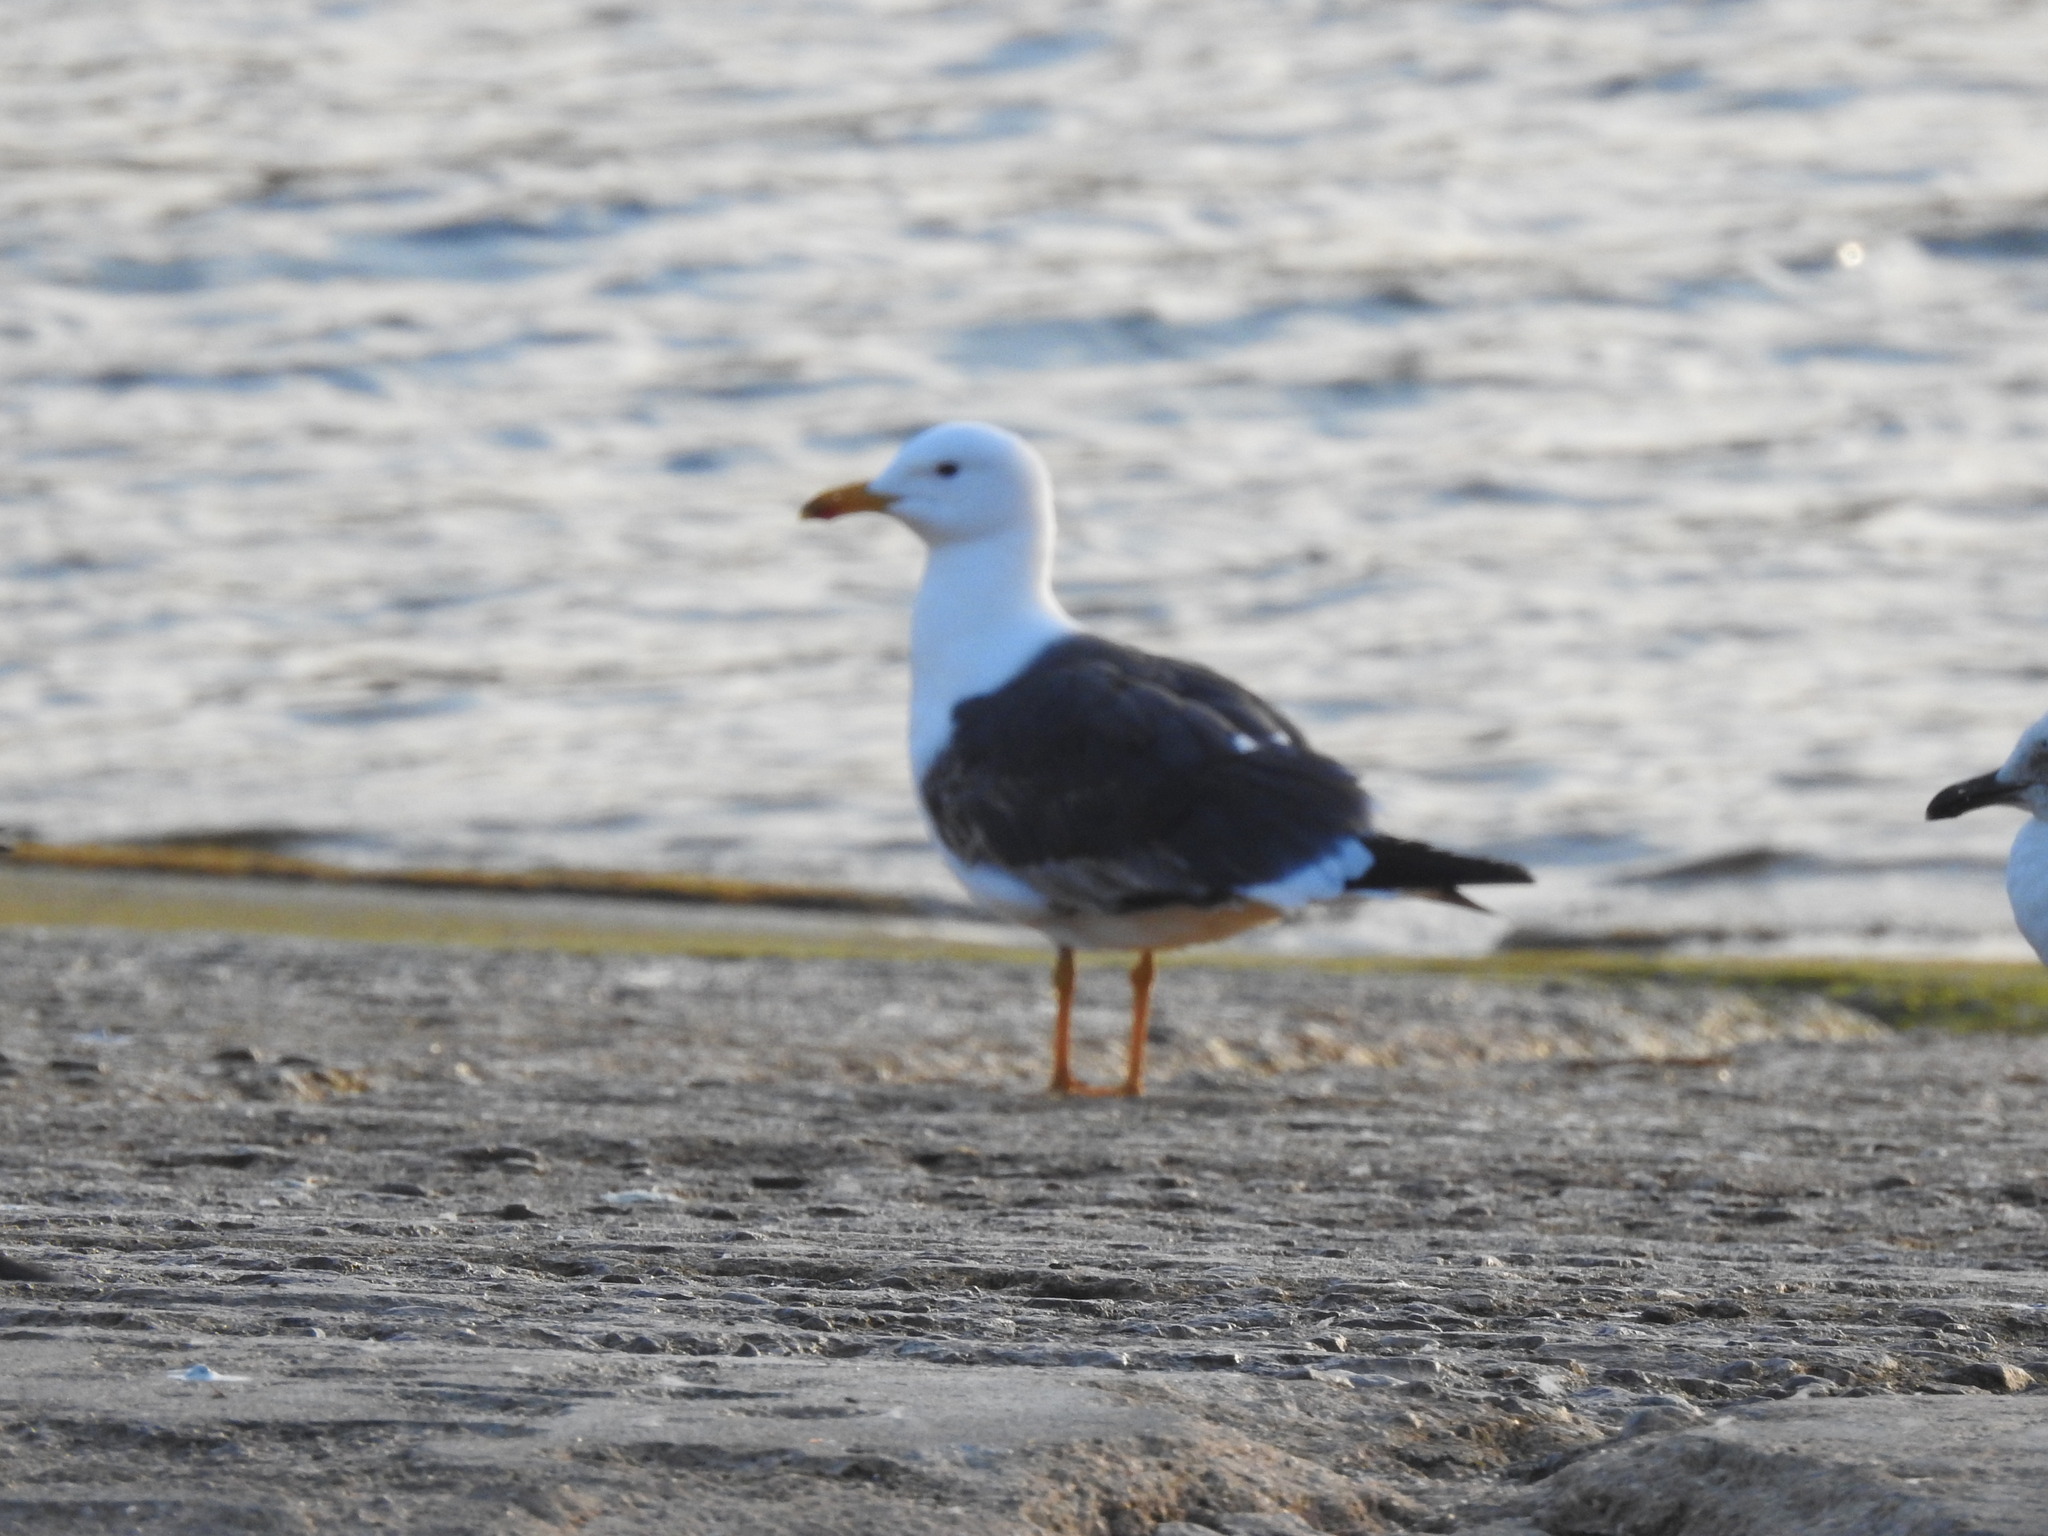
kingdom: Animalia
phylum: Chordata
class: Aves
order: Charadriiformes
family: Laridae
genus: Larus
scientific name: Larus fuscus
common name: Lesser black-backed gull
